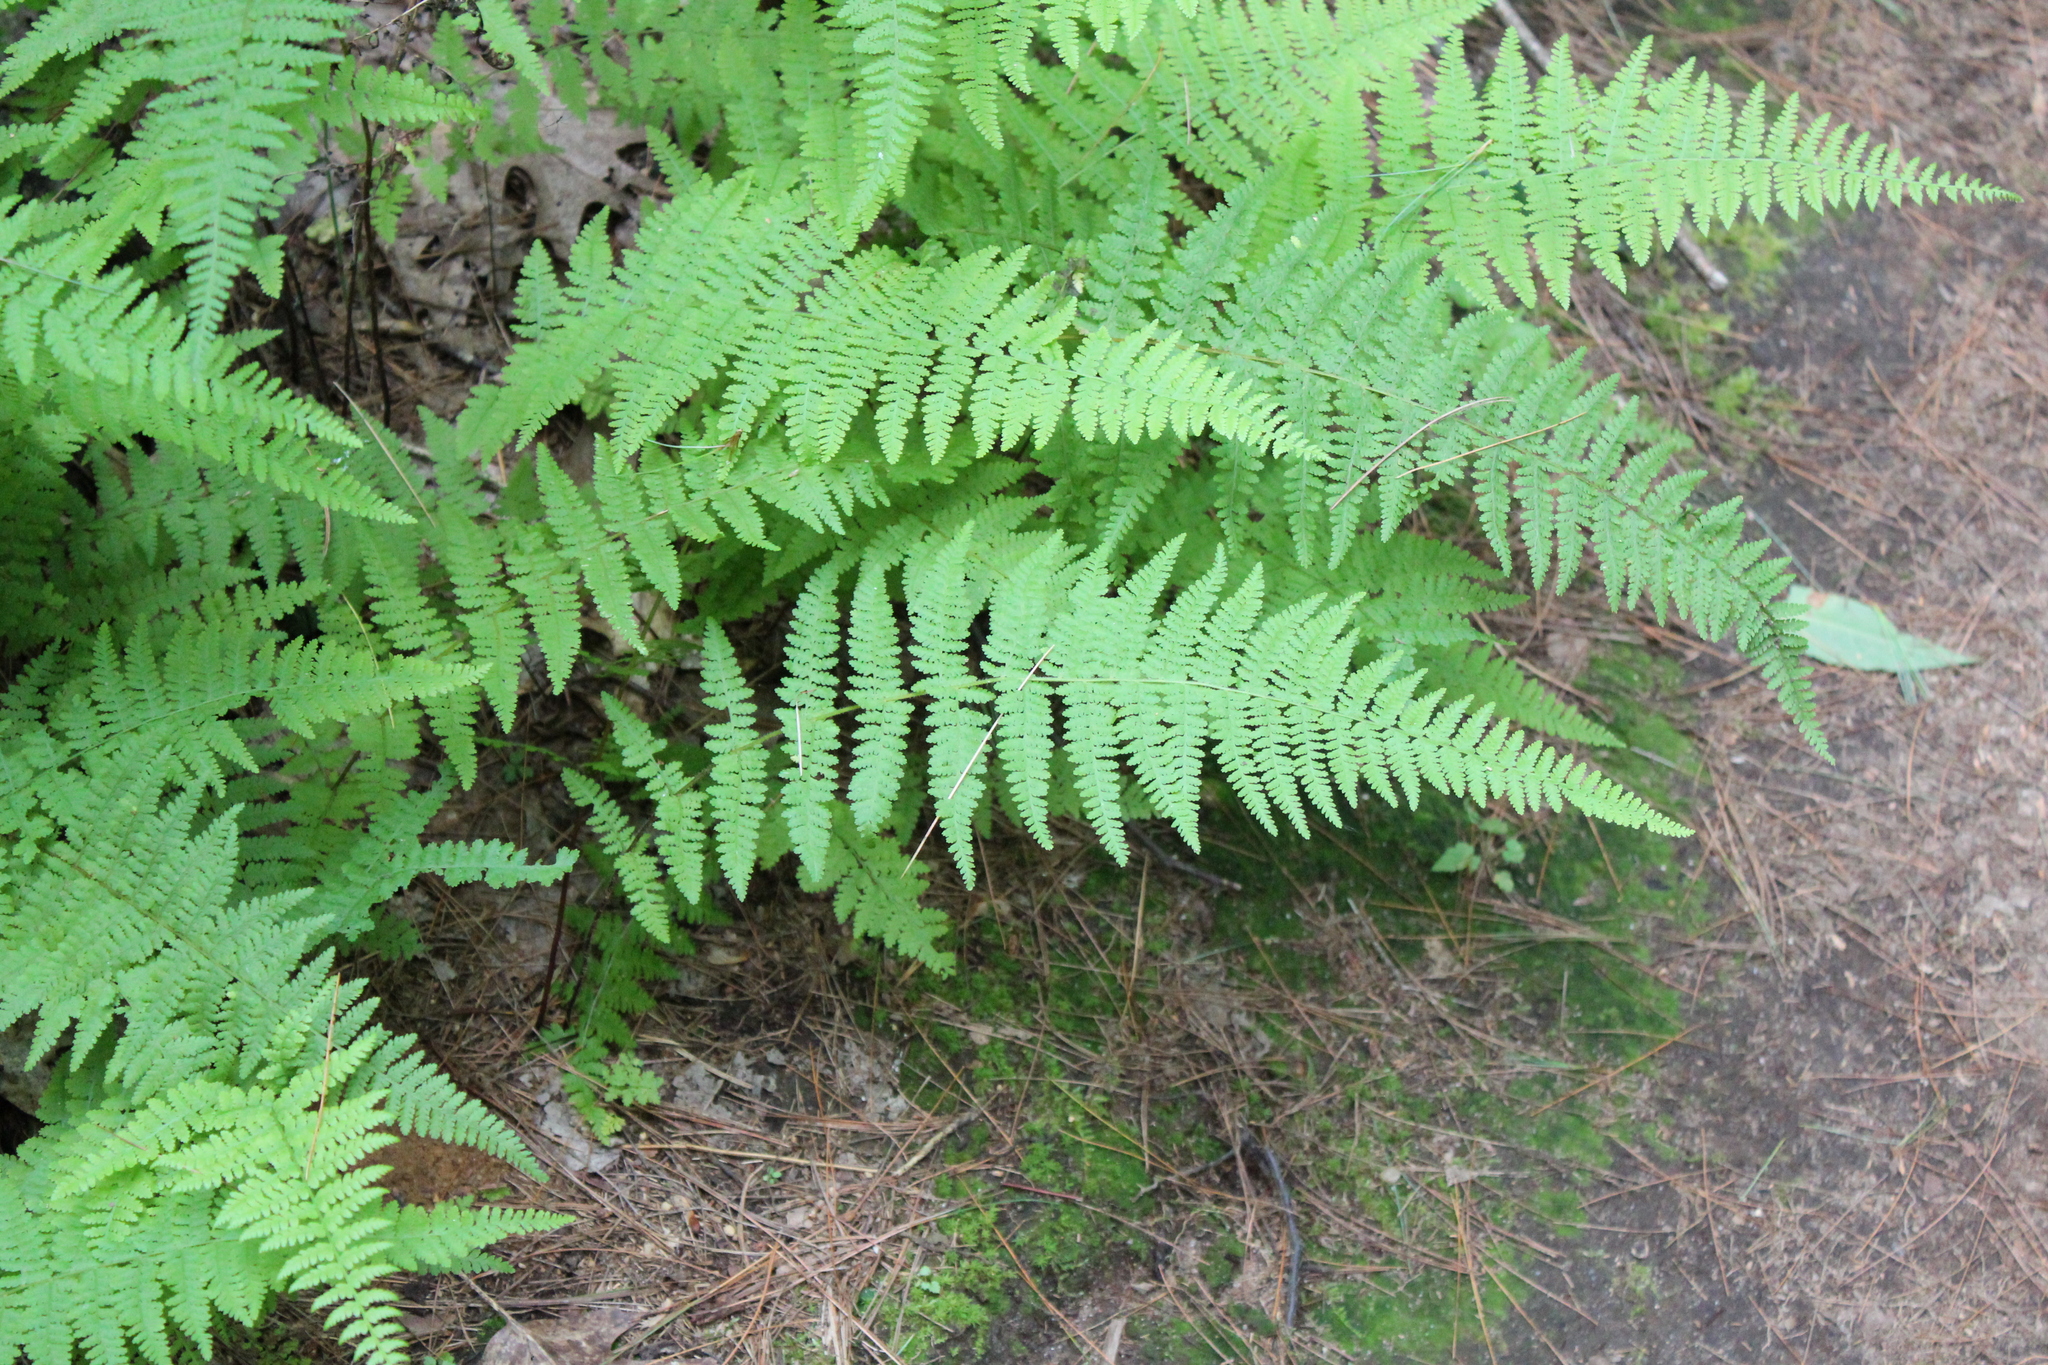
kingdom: Plantae
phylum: Tracheophyta
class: Polypodiopsida
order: Polypodiales
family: Dennstaedtiaceae
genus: Sitobolium
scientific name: Sitobolium punctilobum
